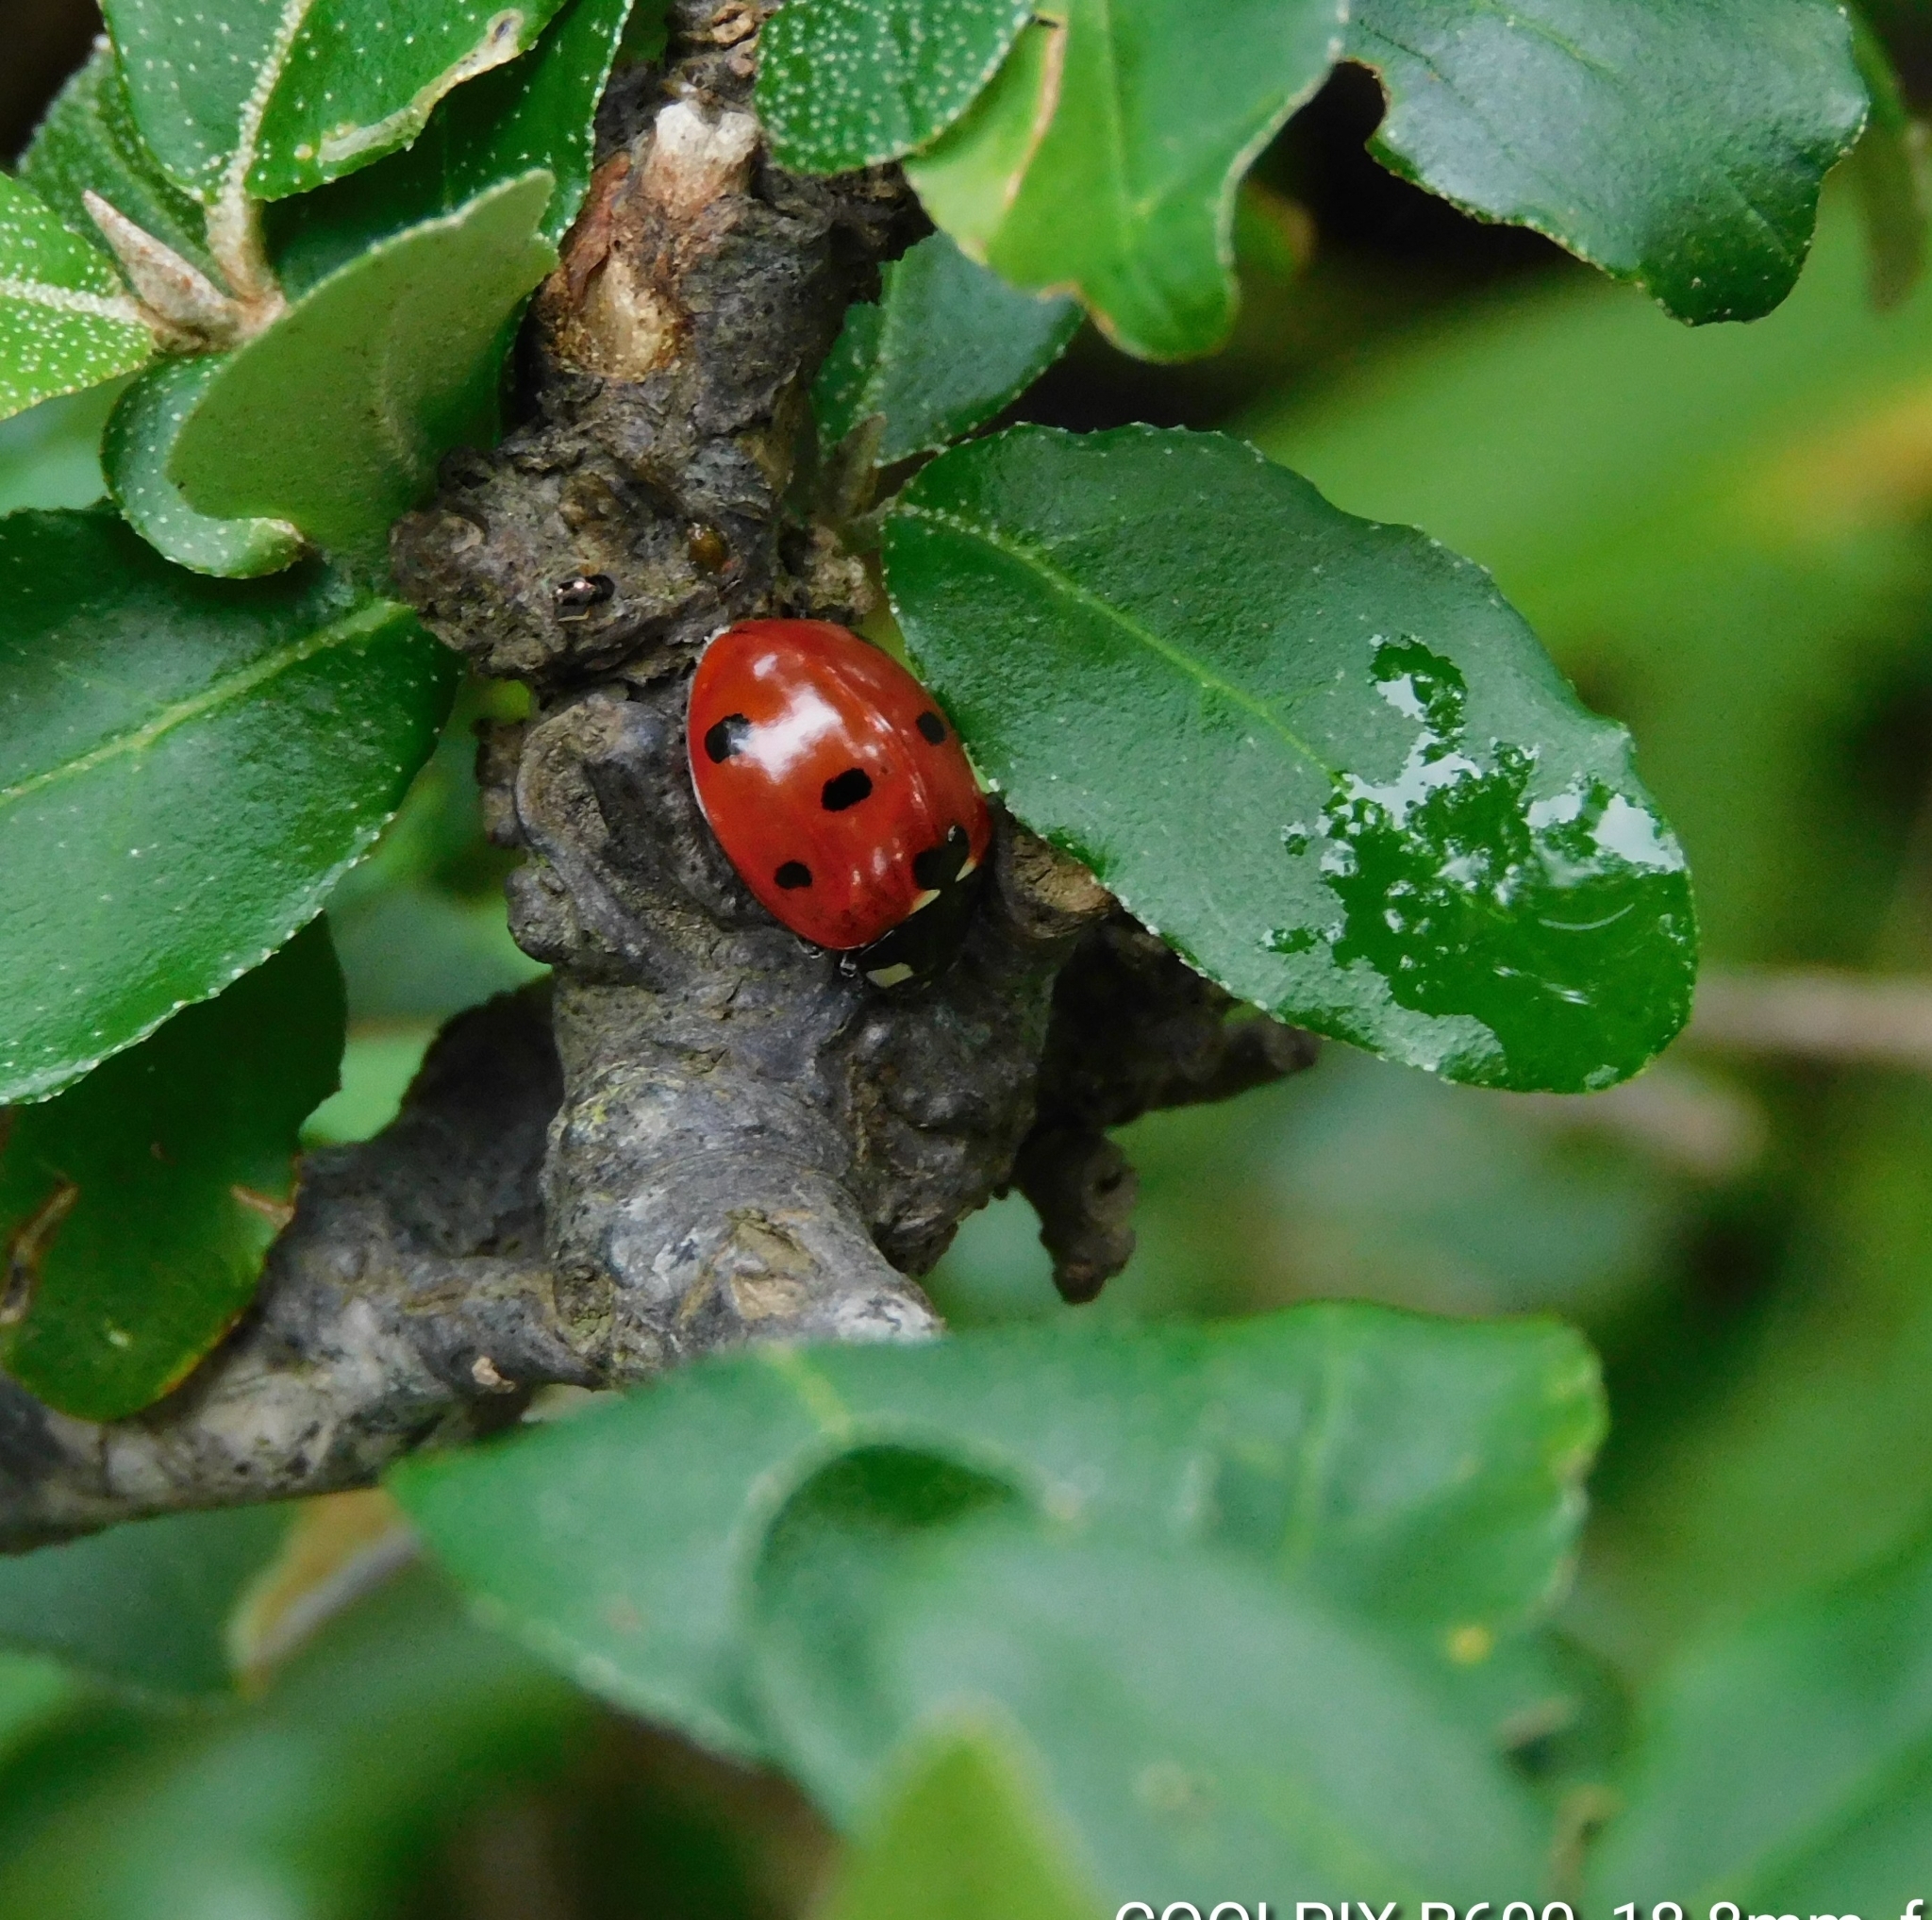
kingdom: Animalia
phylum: Arthropoda
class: Insecta
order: Coleoptera
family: Coccinellidae
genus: Coccinella
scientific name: Coccinella septempunctata
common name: Sevenspotted lady beetle
